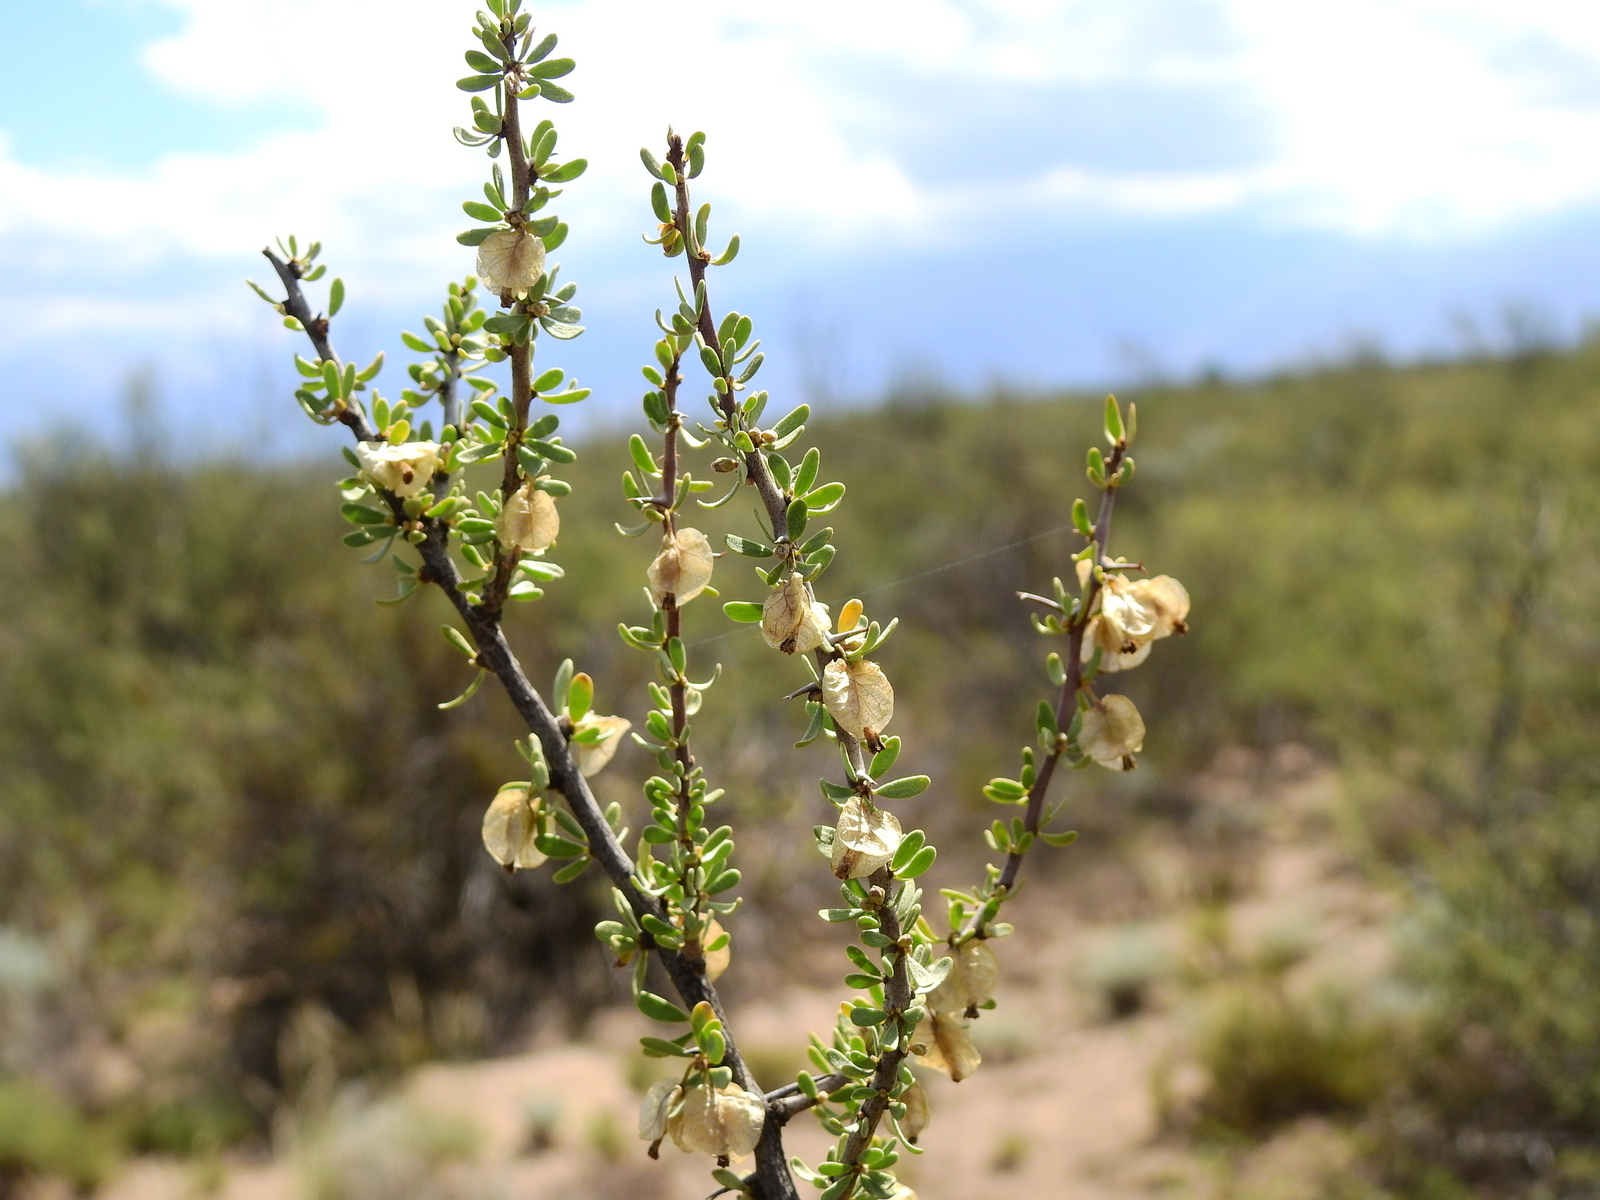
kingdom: Plantae
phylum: Tracheophyta
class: Magnoliopsida
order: Caryophyllales
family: Nyctaginaceae
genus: Bougainvillea
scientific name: Bougainvillea spinosa
